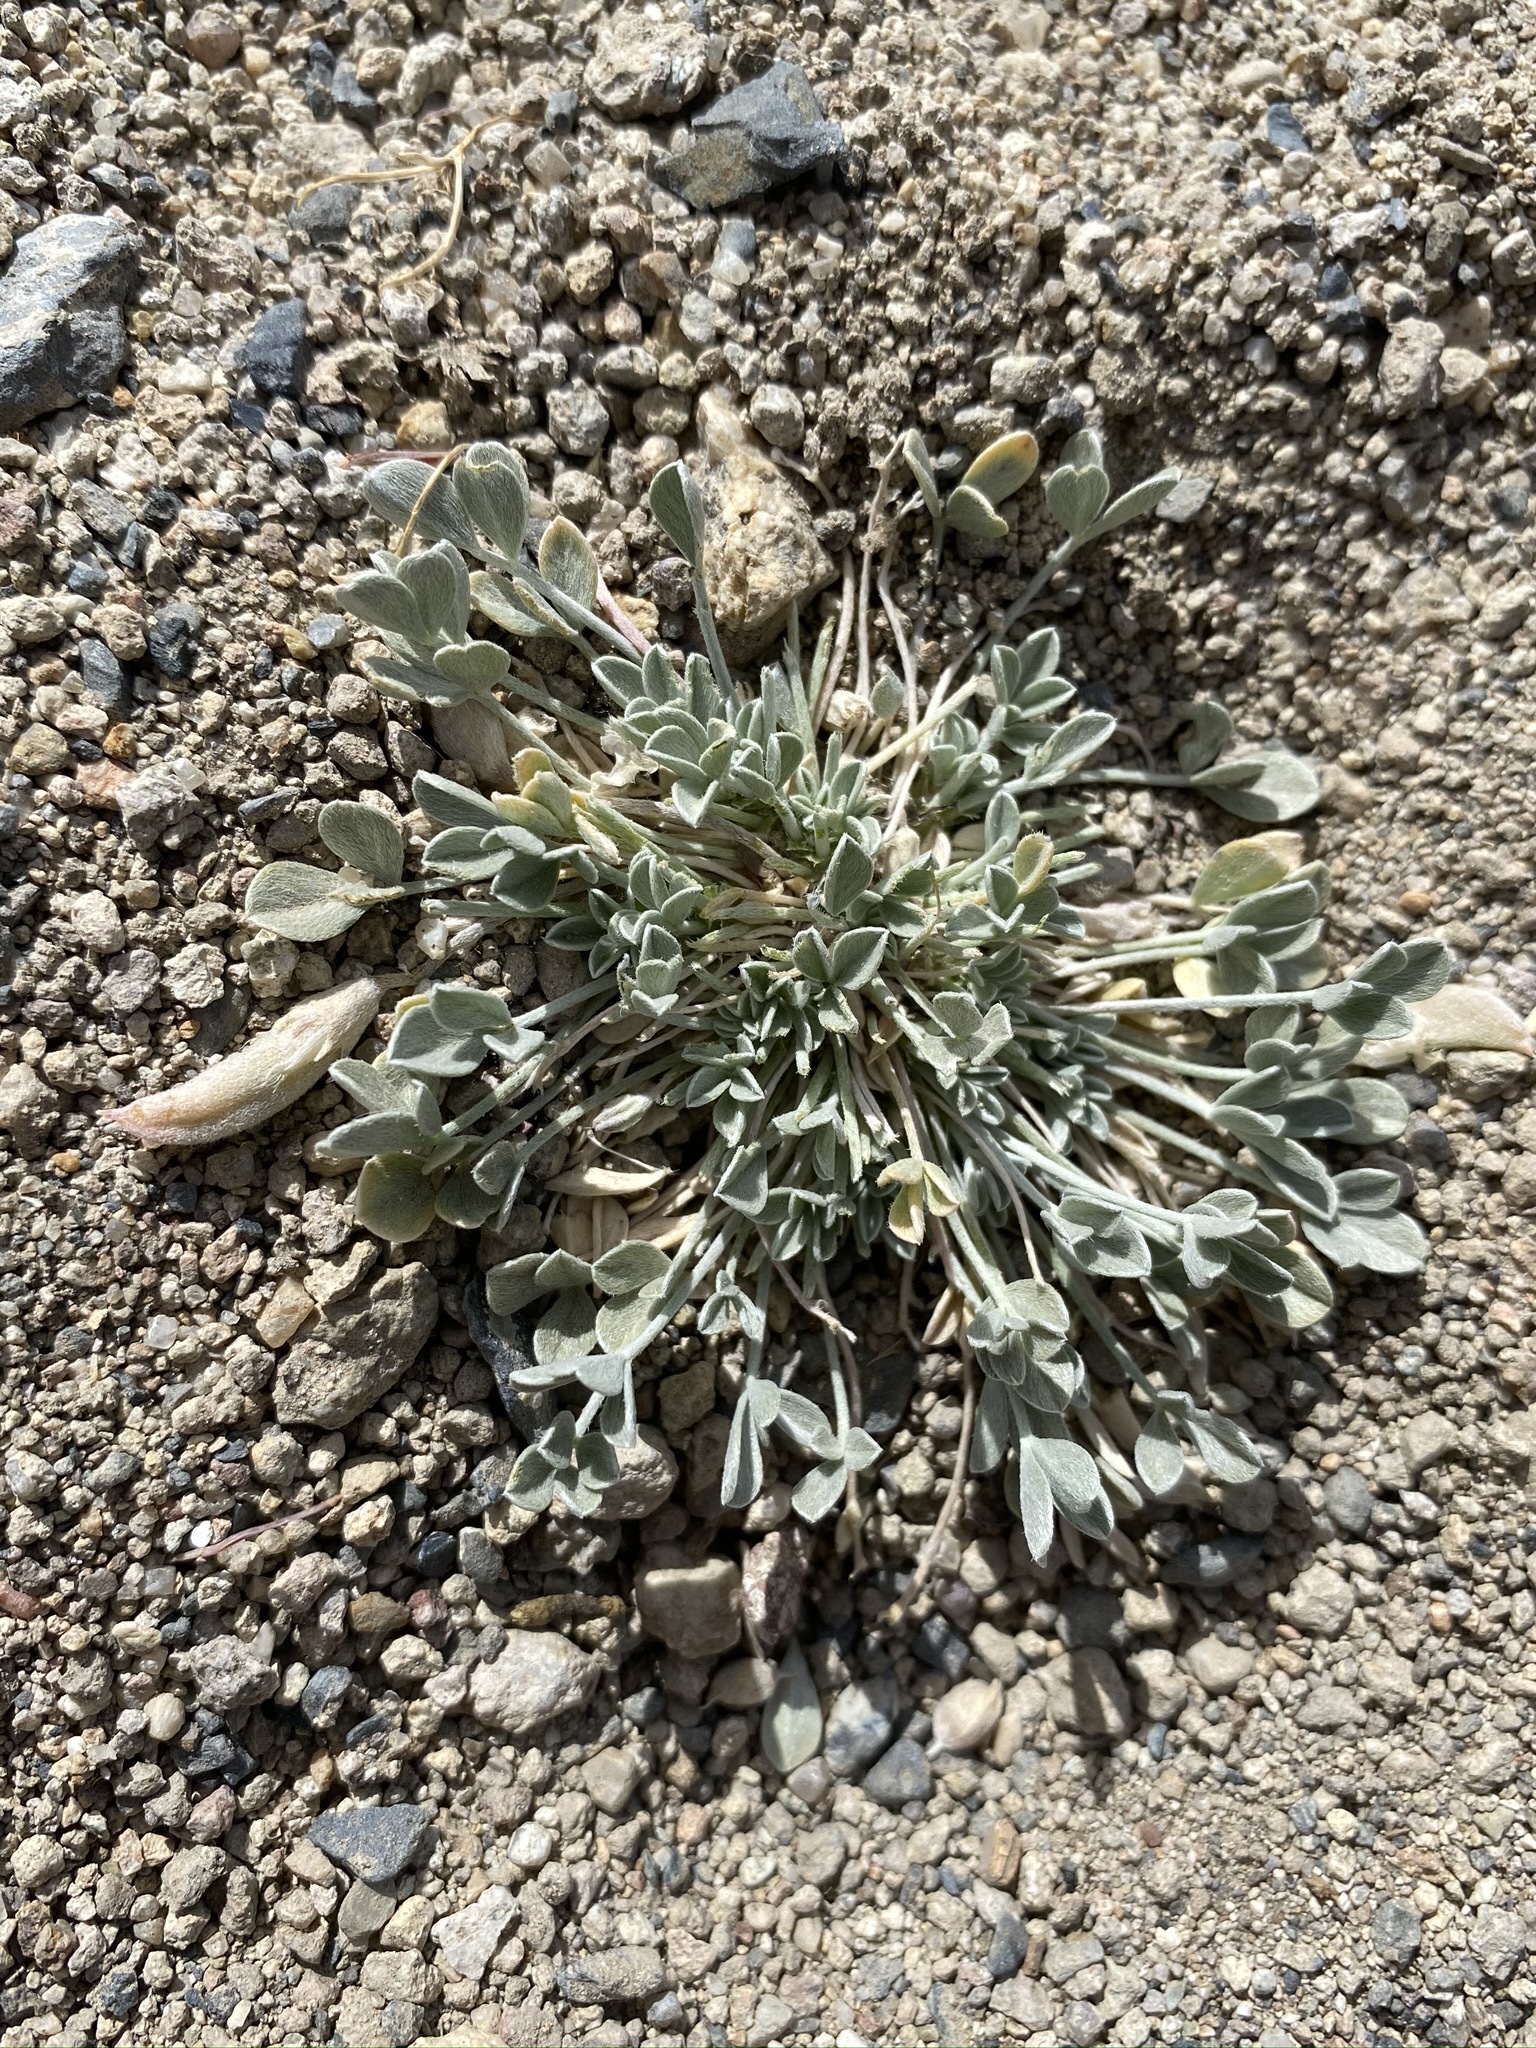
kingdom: Plantae
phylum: Tracheophyta
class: Magnoliopsida
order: Fabales
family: Fabaceae
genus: Astragalus
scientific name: Astragalus calycosus
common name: King's milkvetch
